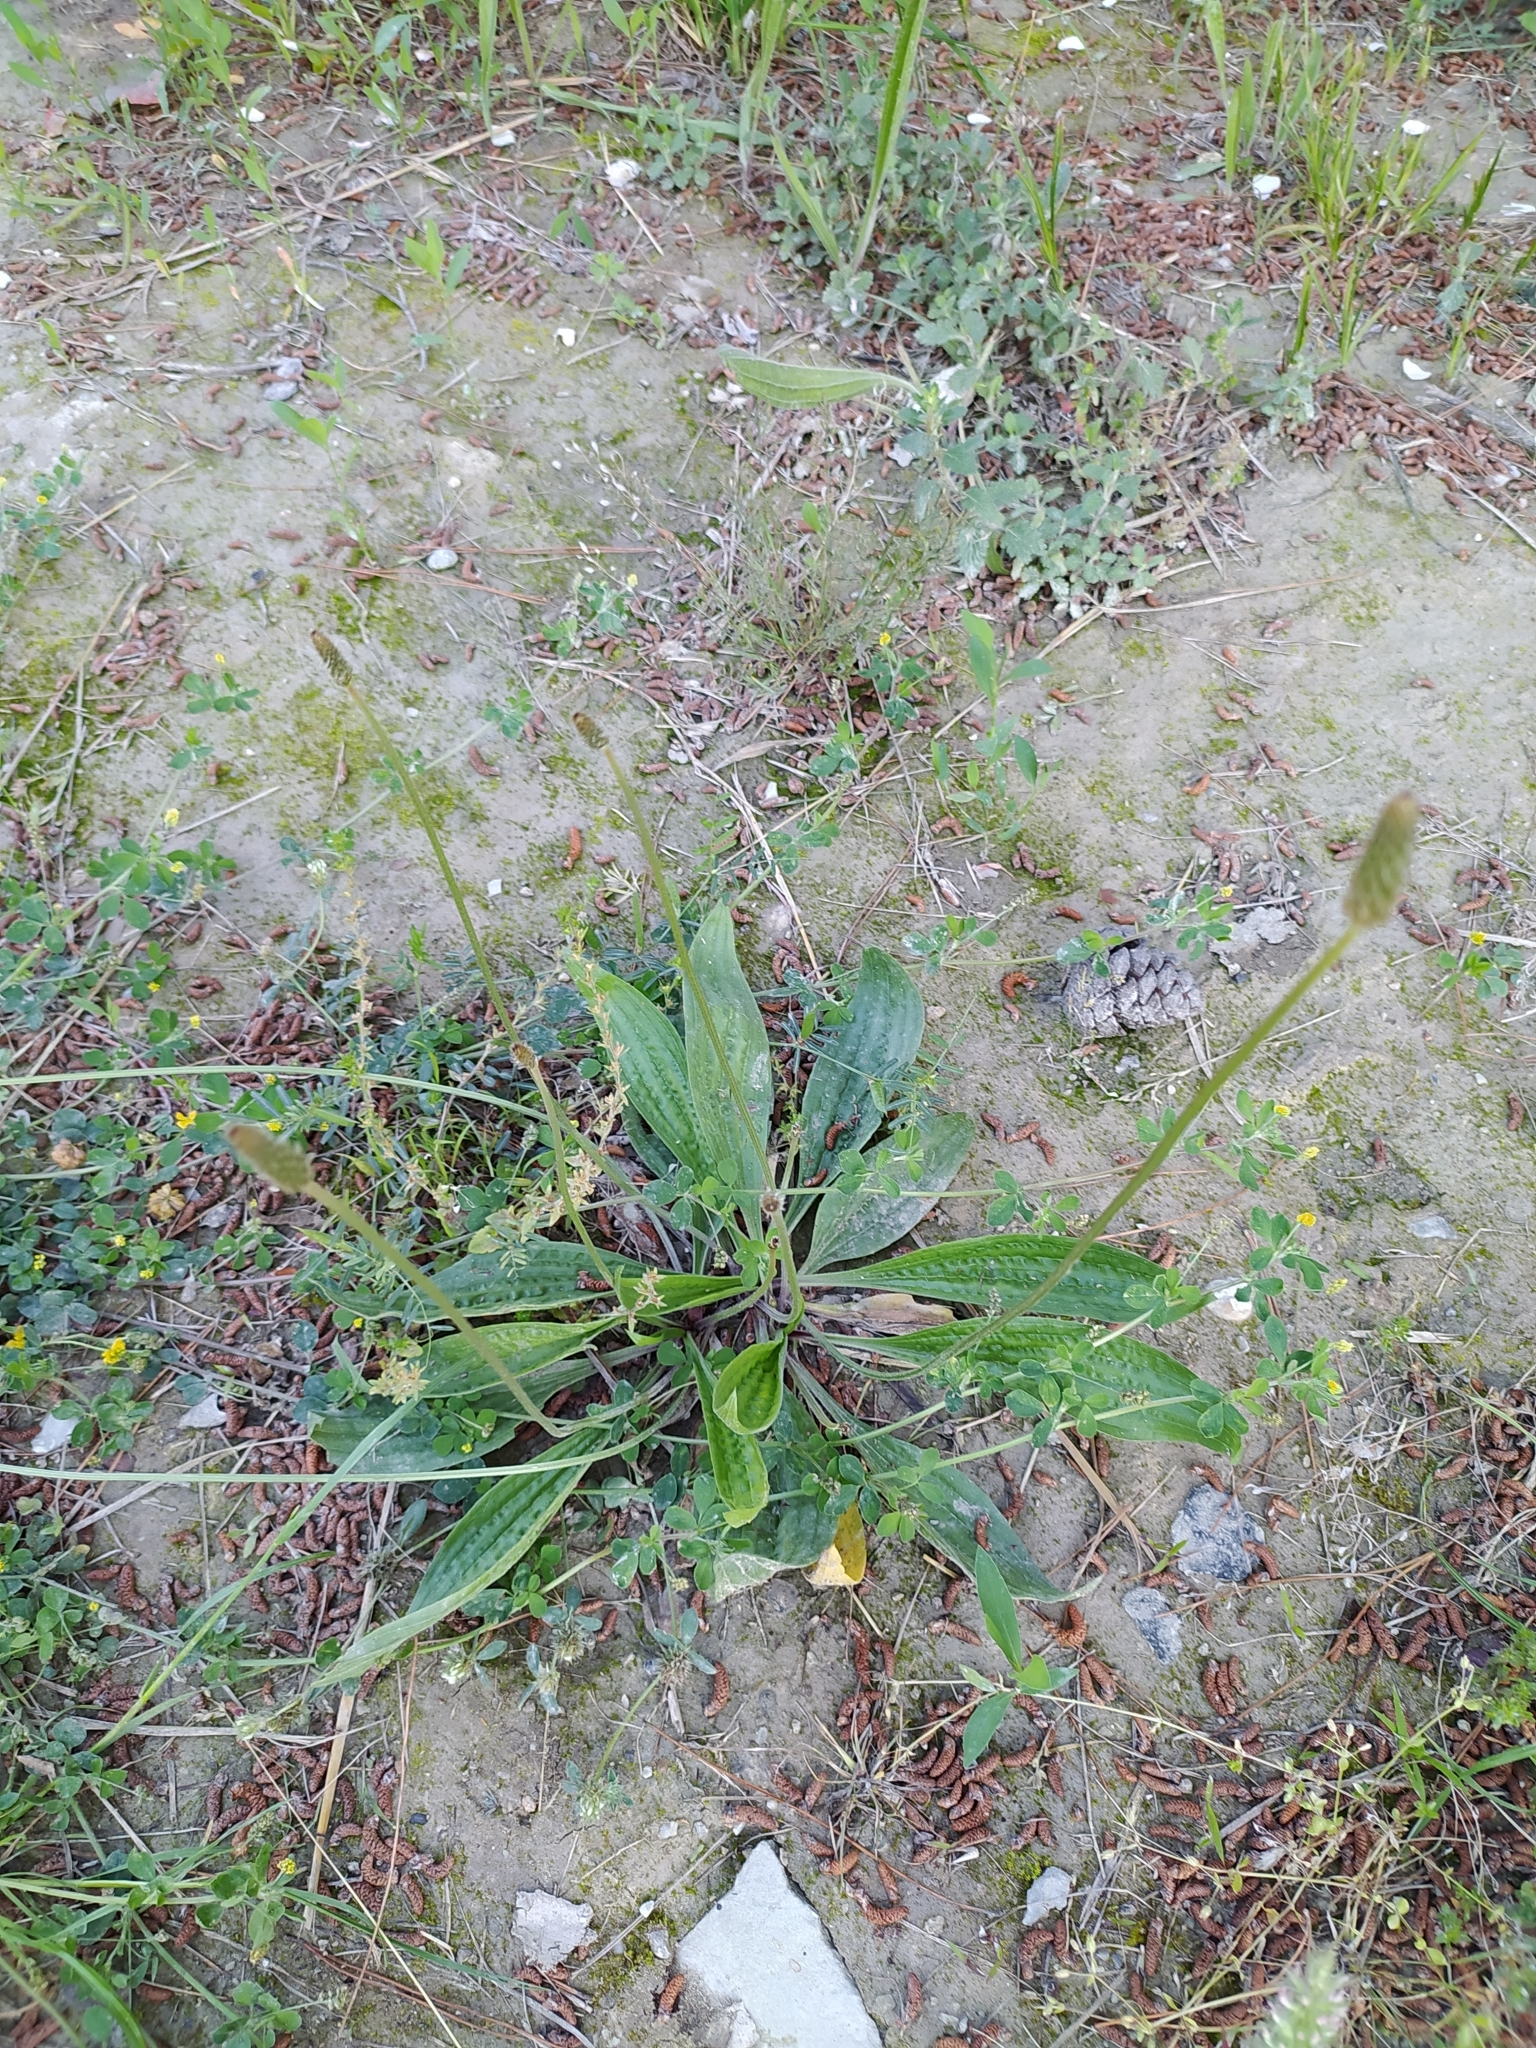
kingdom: Plantae
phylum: Tracheophyta
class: Magnoliopsida
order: Lamiales
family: Plantaginaceae
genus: Plantago
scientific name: Plantago lanceolata
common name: Ribwort plantain
